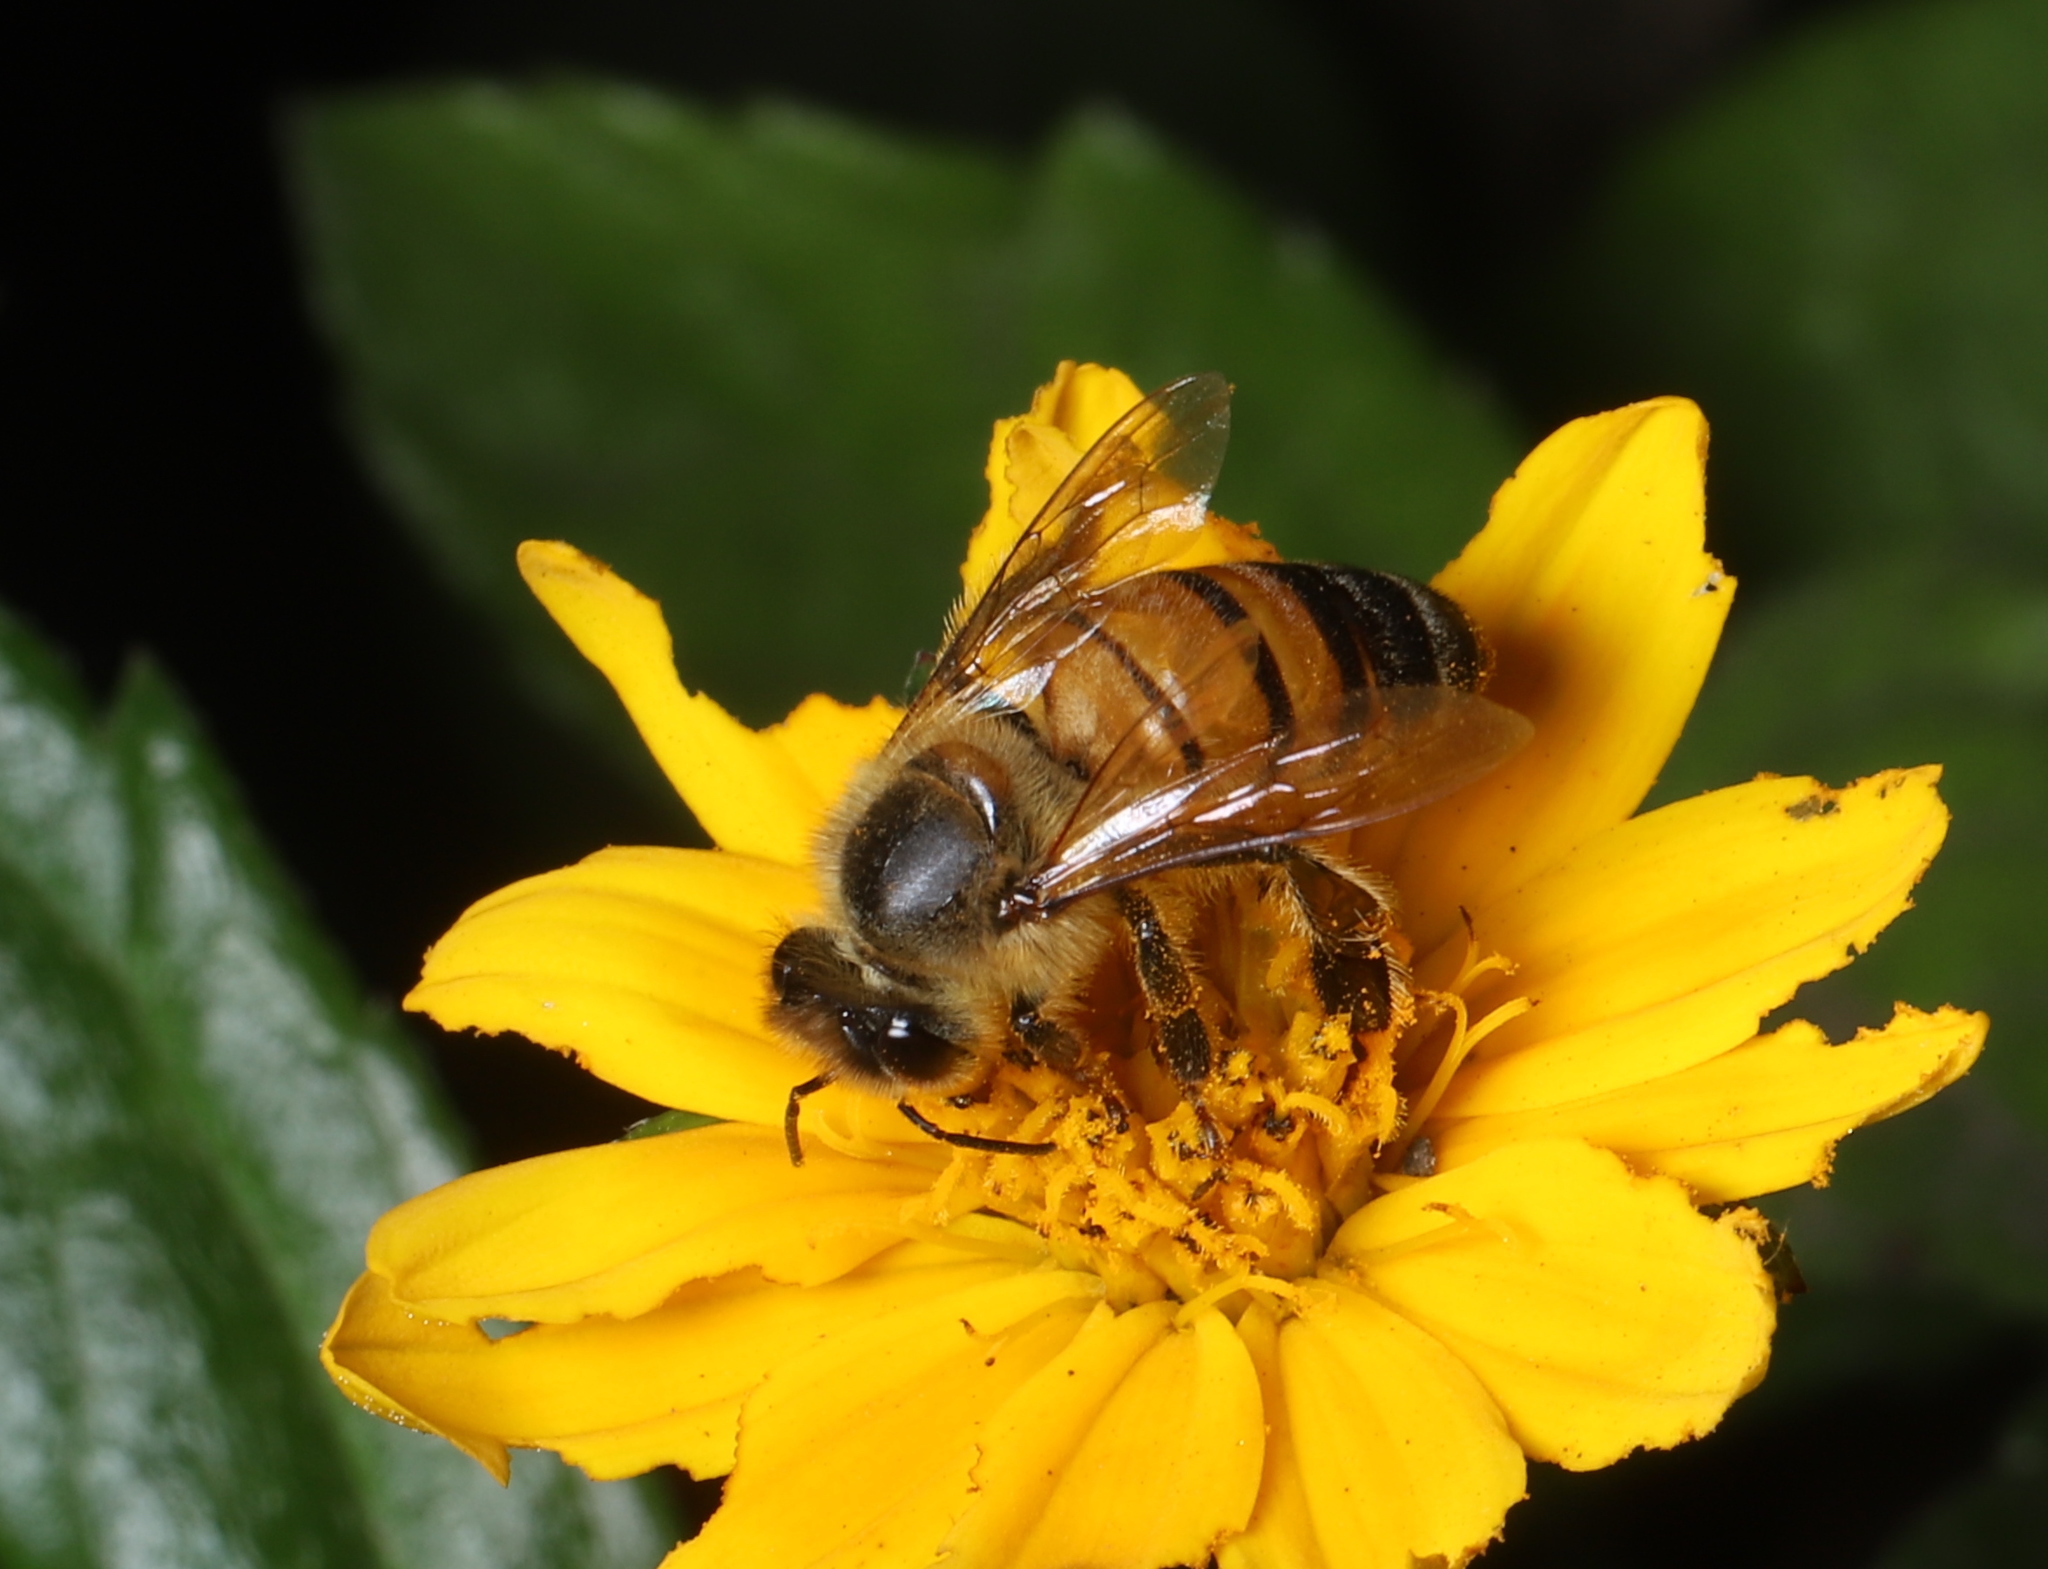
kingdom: Animalia
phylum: Arthropoda
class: Insecta
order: Hymenoptera
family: Apidae
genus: Apis
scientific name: Apis mellifera
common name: Honey bee
